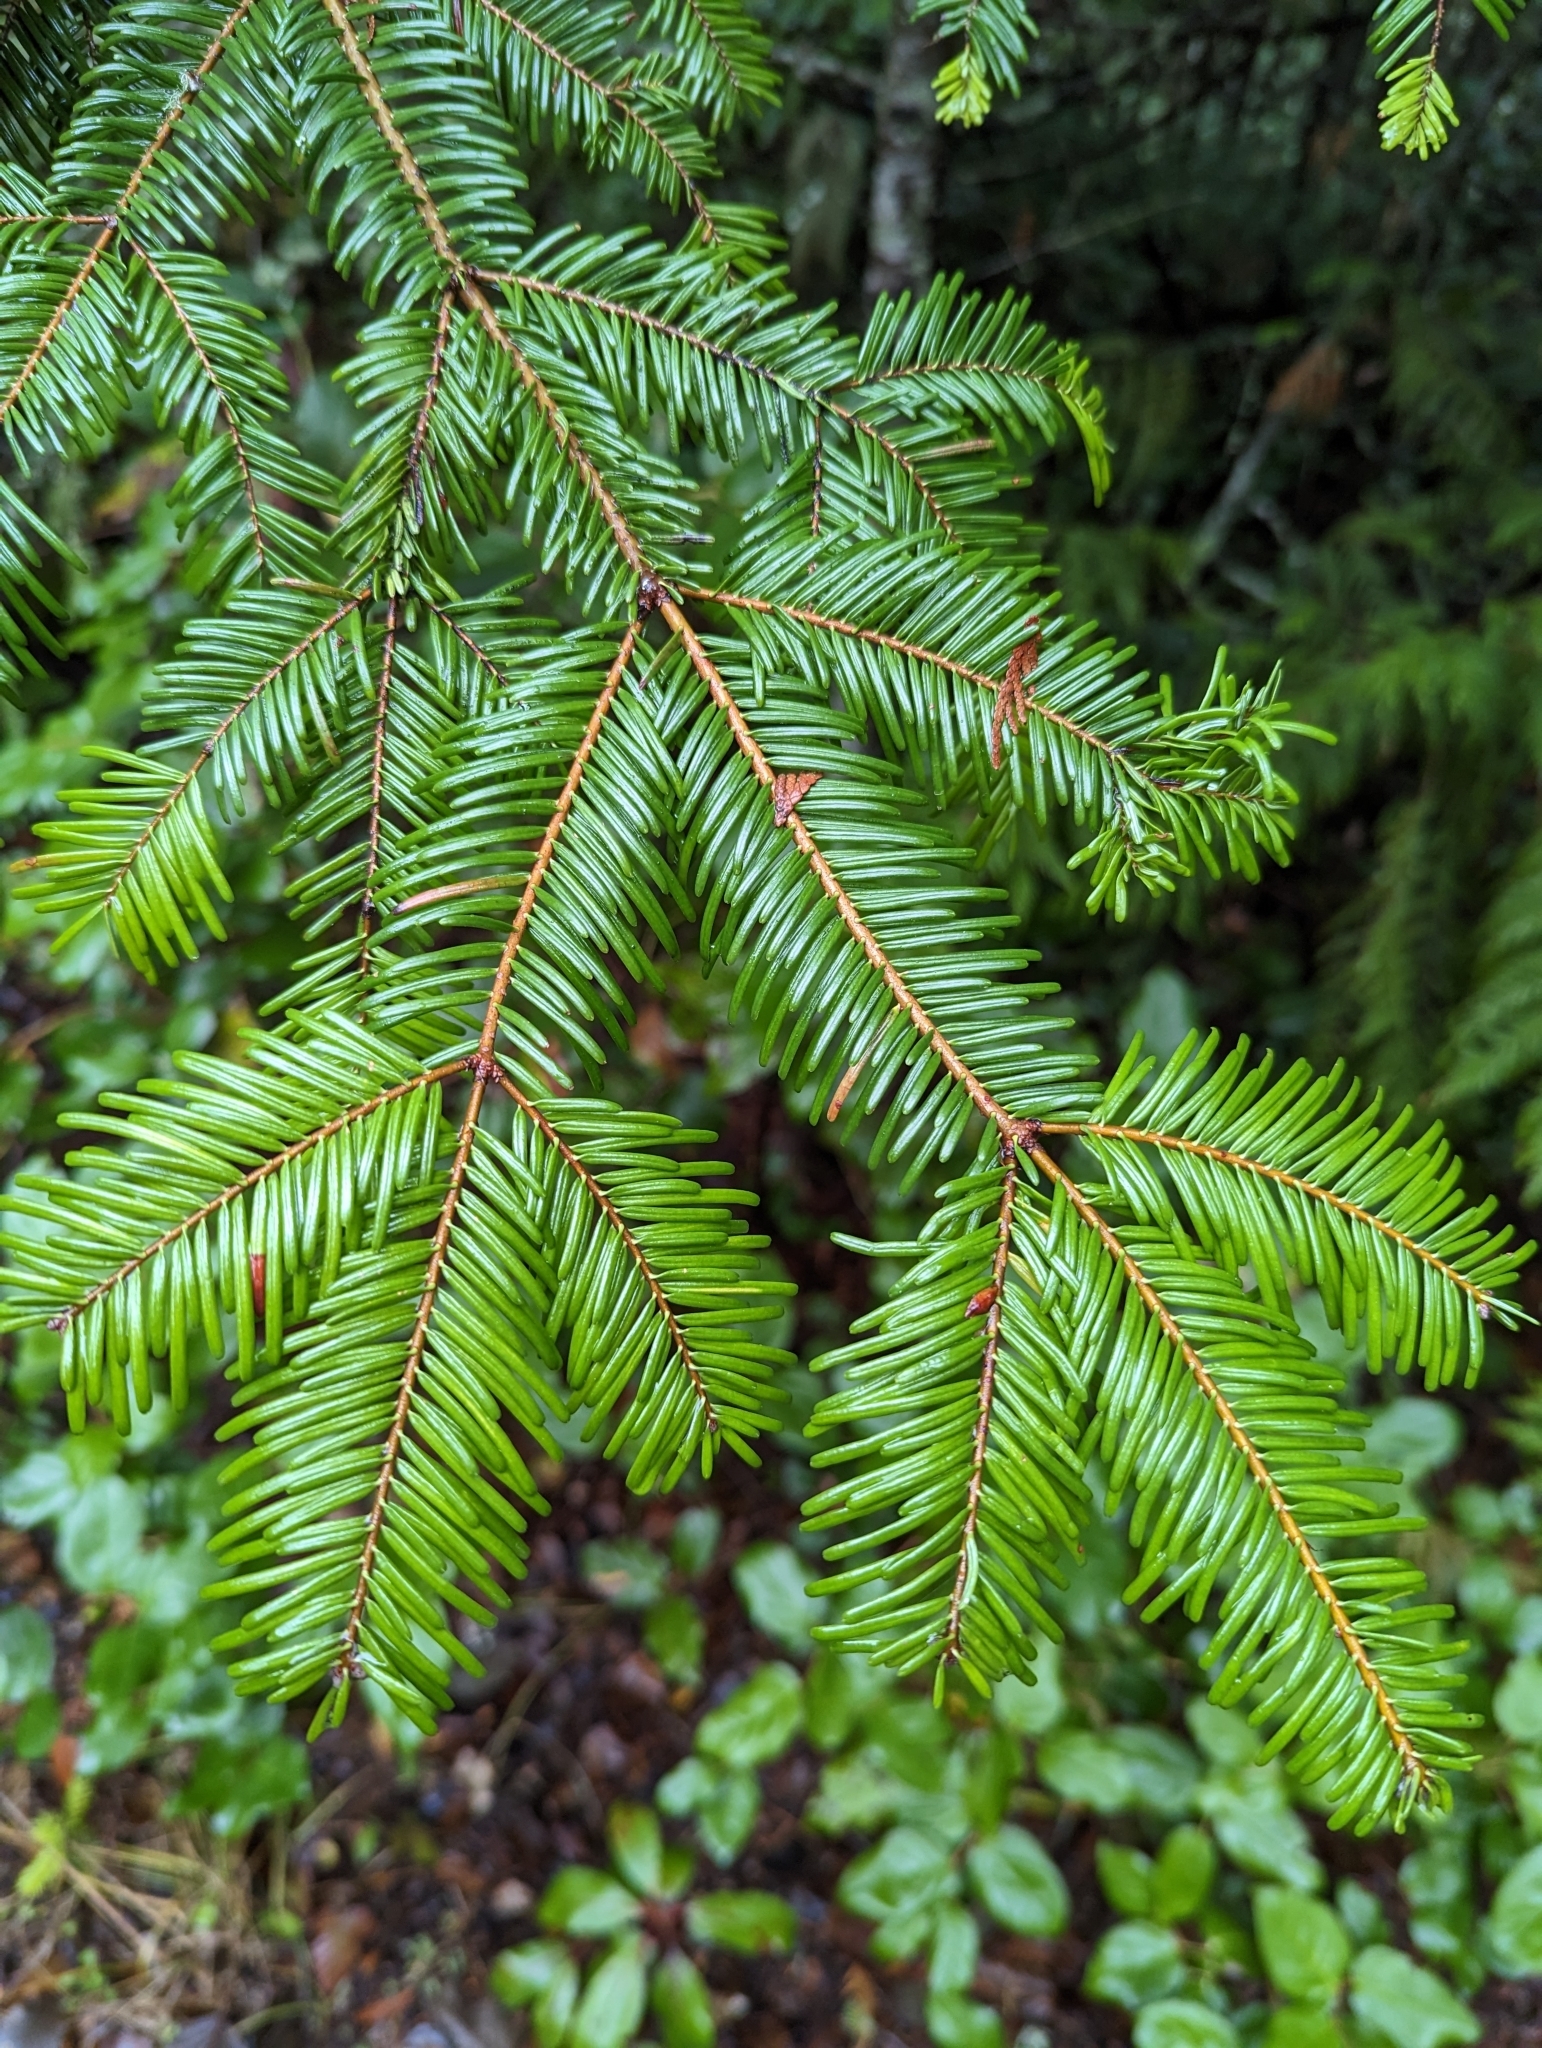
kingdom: Plantae
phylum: Tracheophyta
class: Pinopsida
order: Pinales
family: Pinaceae
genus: Abies
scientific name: Abies grandis
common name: Giant fir
